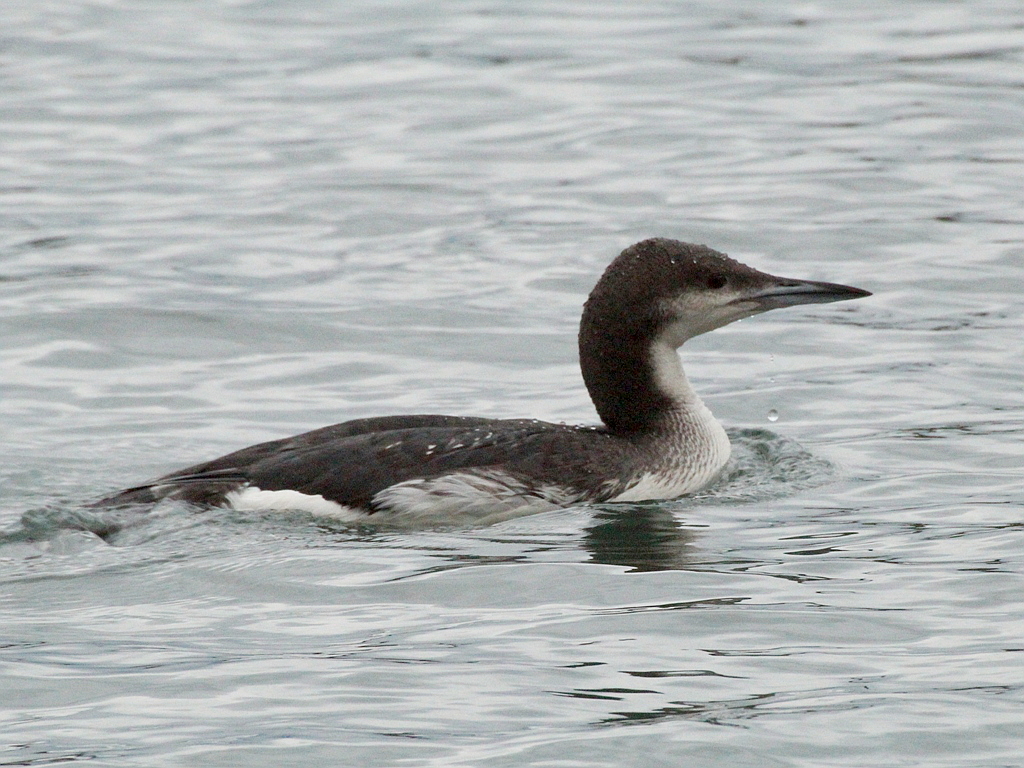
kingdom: Animalia
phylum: Chordata
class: Aves
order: Gaviiformes
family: Gaviidae
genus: Gavia
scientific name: Gavia arctica
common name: Black-throated loon
